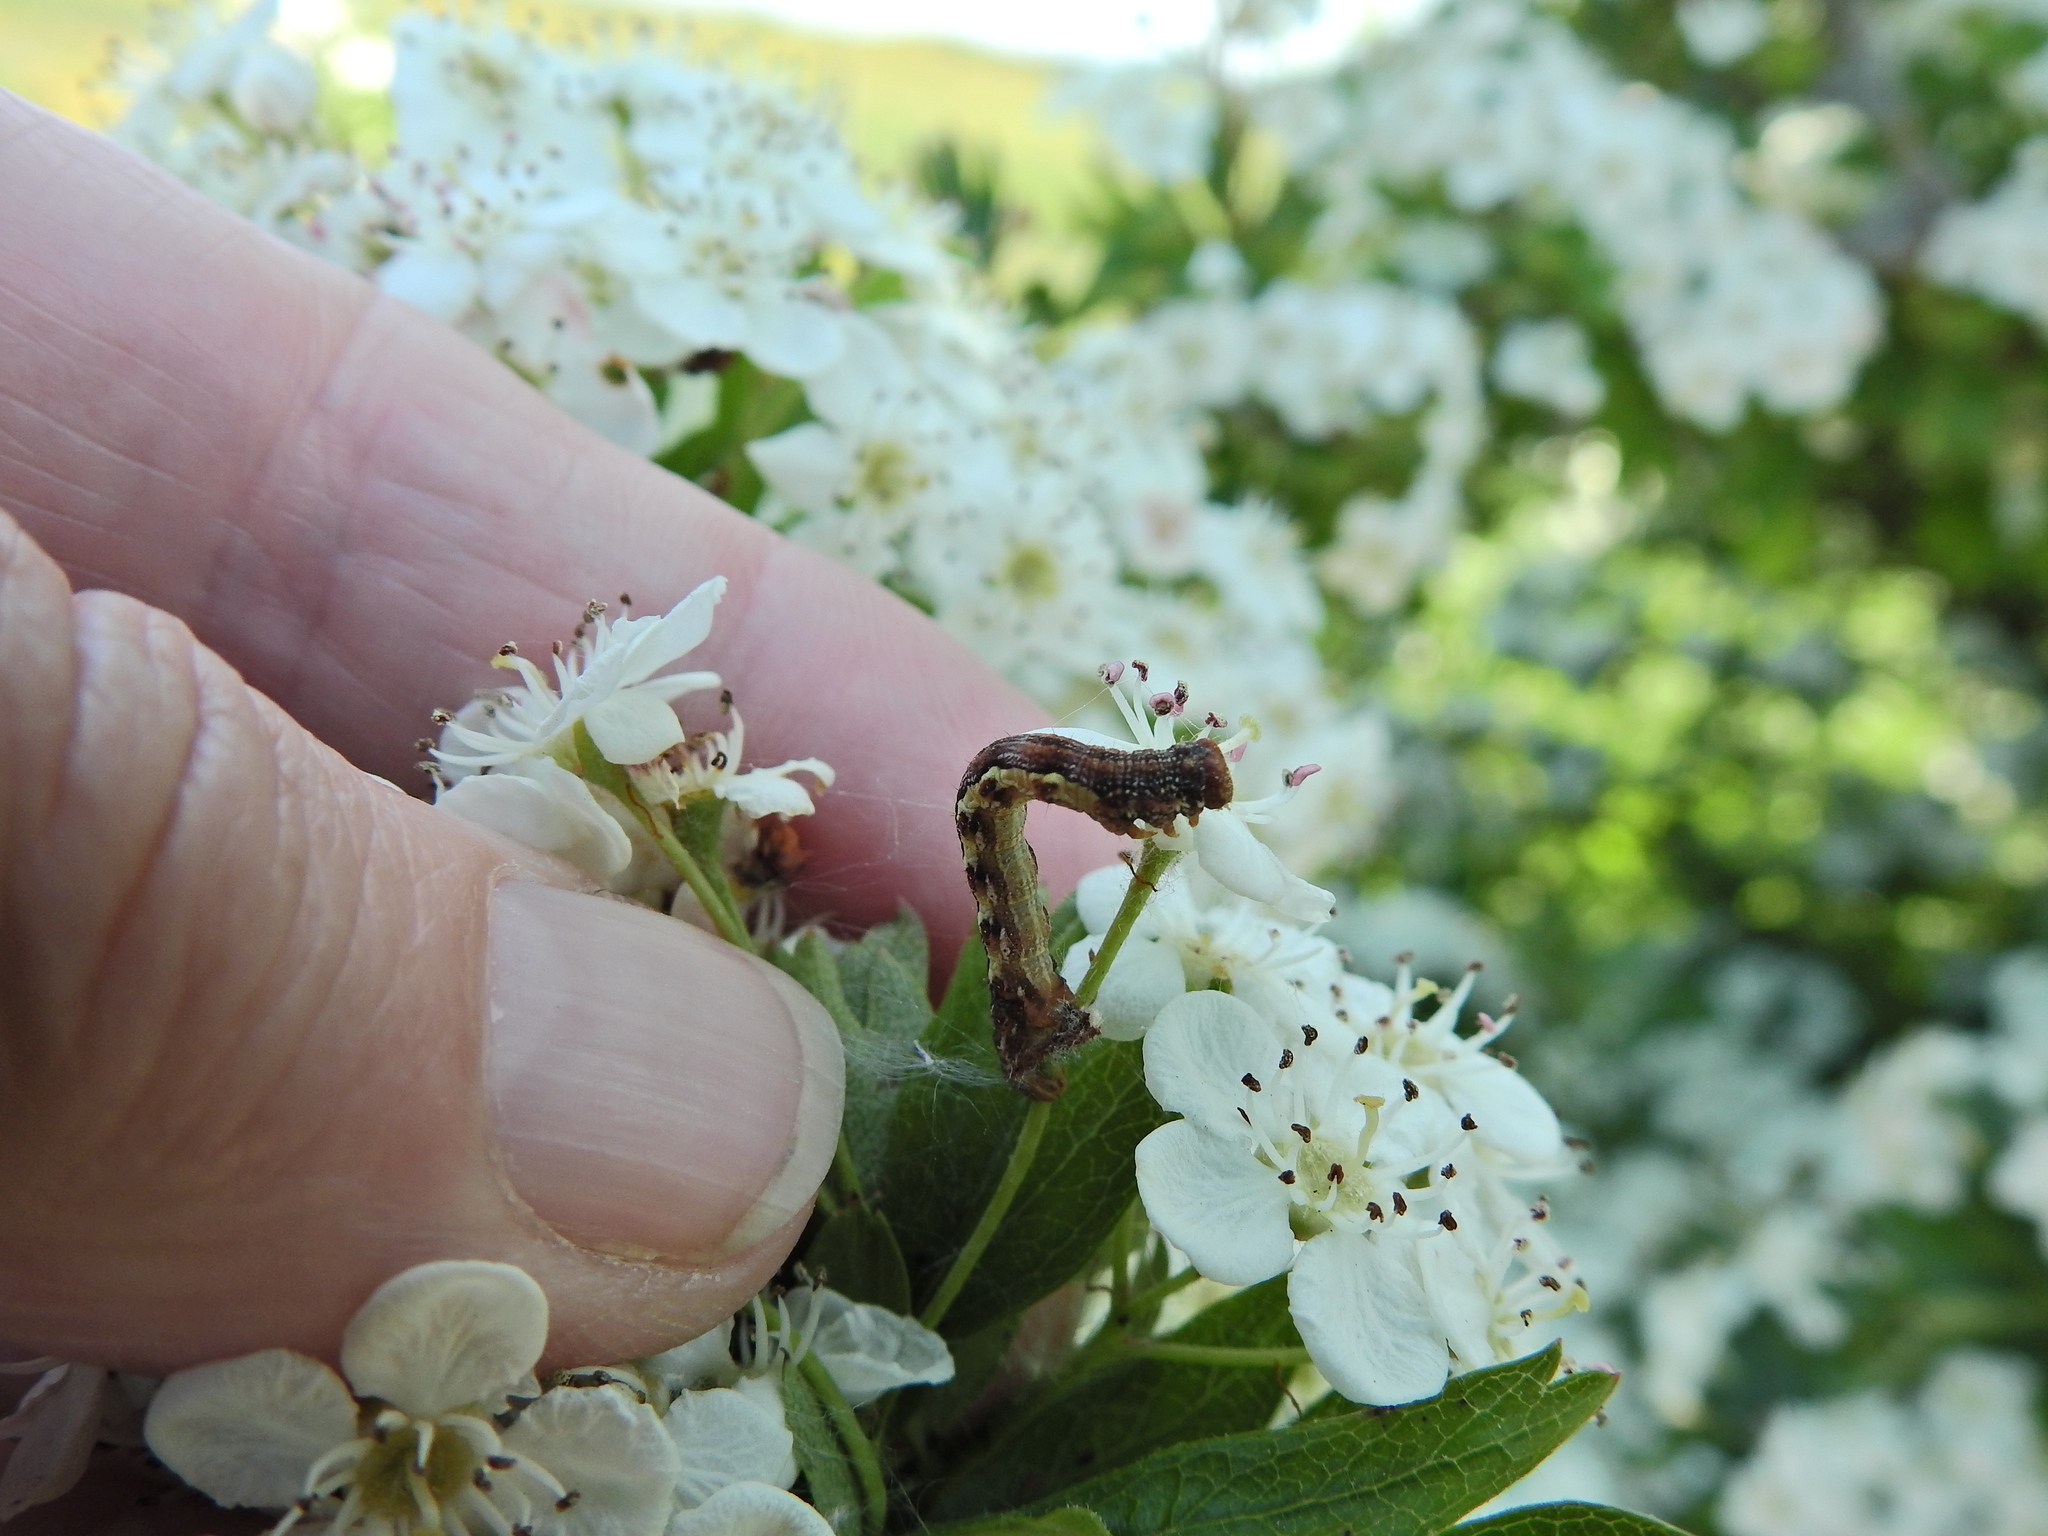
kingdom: Animalia
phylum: Arthropoda
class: Insecta
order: Lepidoptera
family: Geometridae
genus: Erannis
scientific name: Erannis defoliaria
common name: Mottled umber
